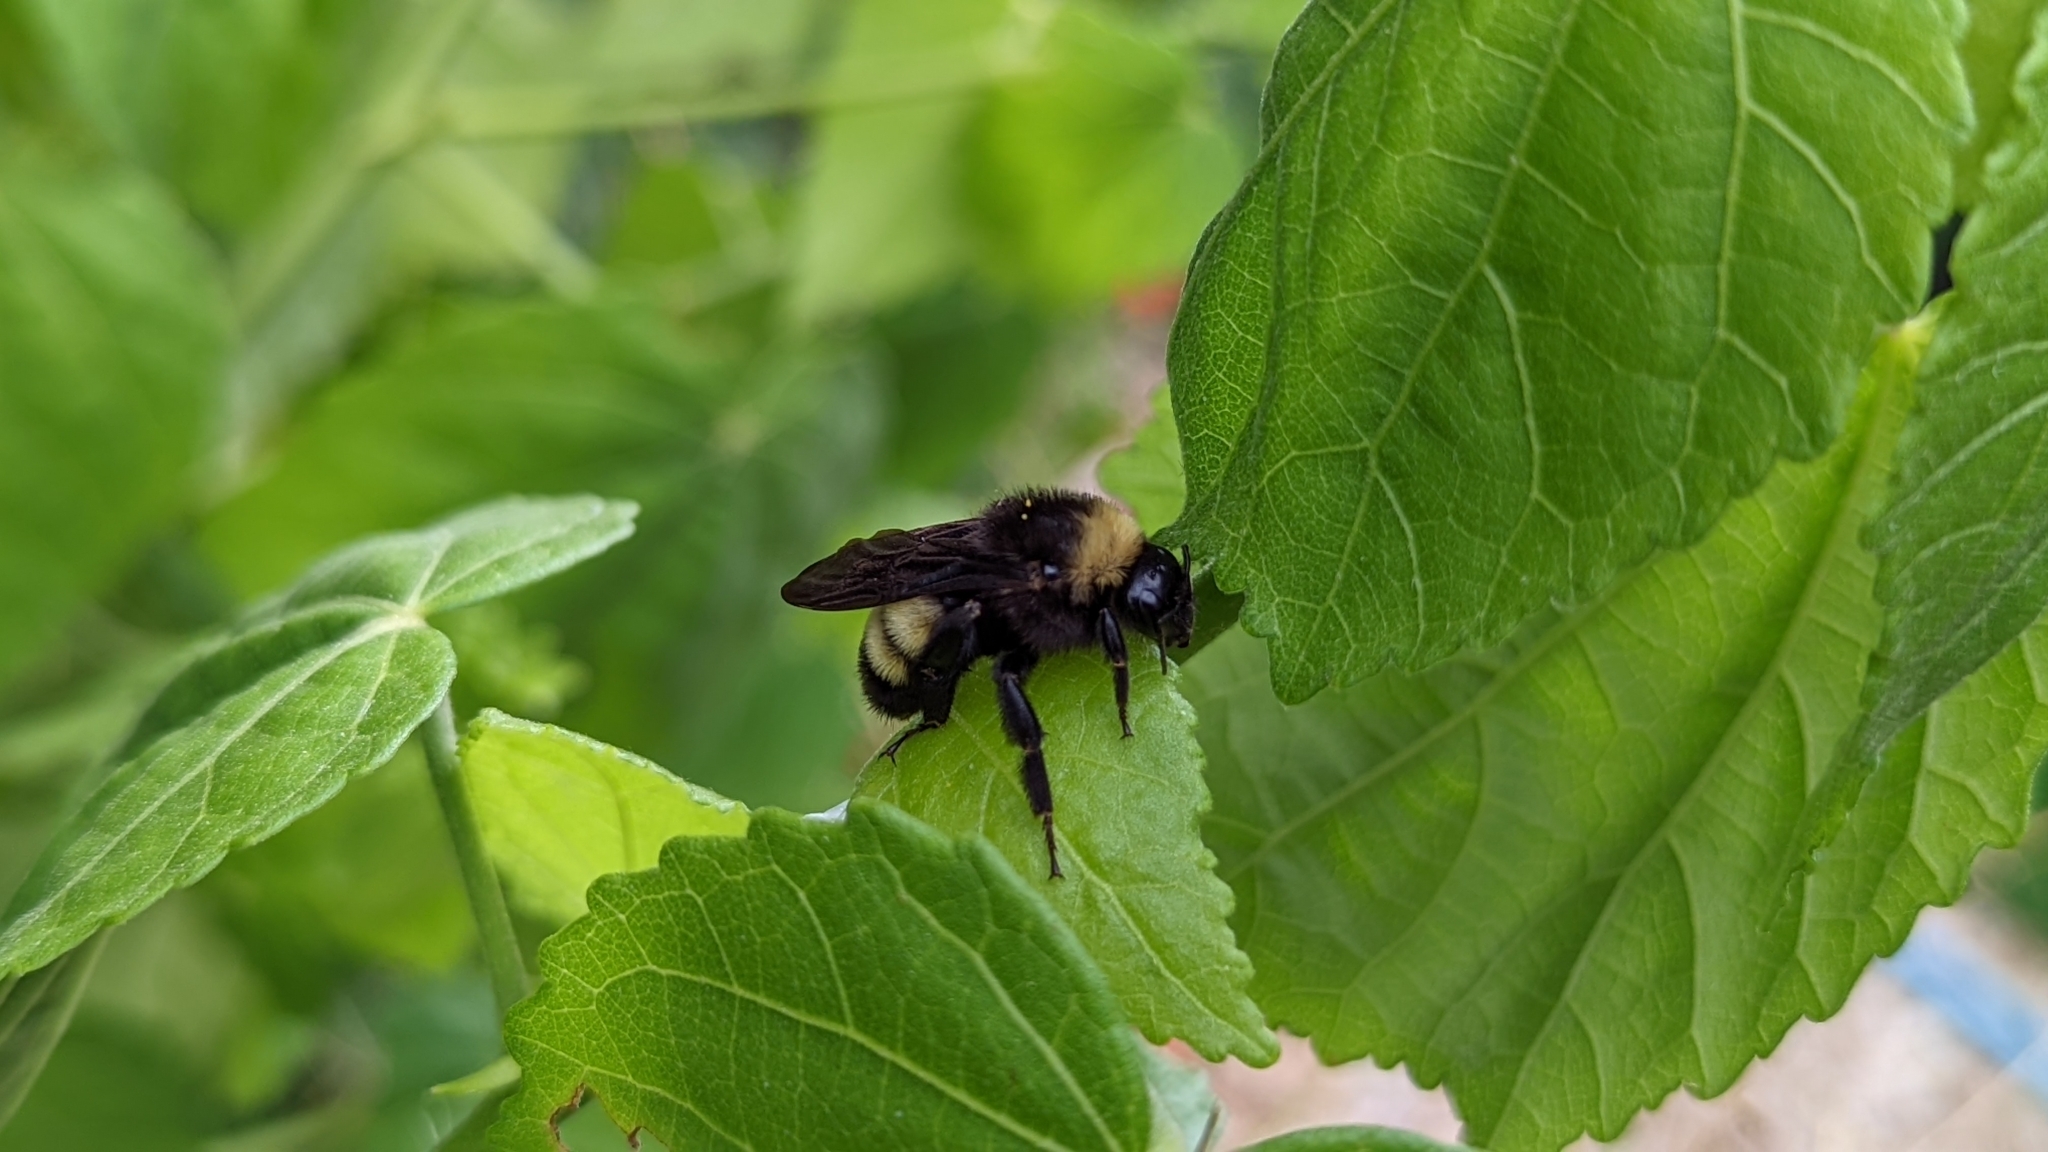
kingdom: Animalia
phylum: Arthropoda
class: Insecta
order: Hymenoptera
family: Apidae
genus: Bombus
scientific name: Bombus pensylvanicus
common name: Bumble bee
